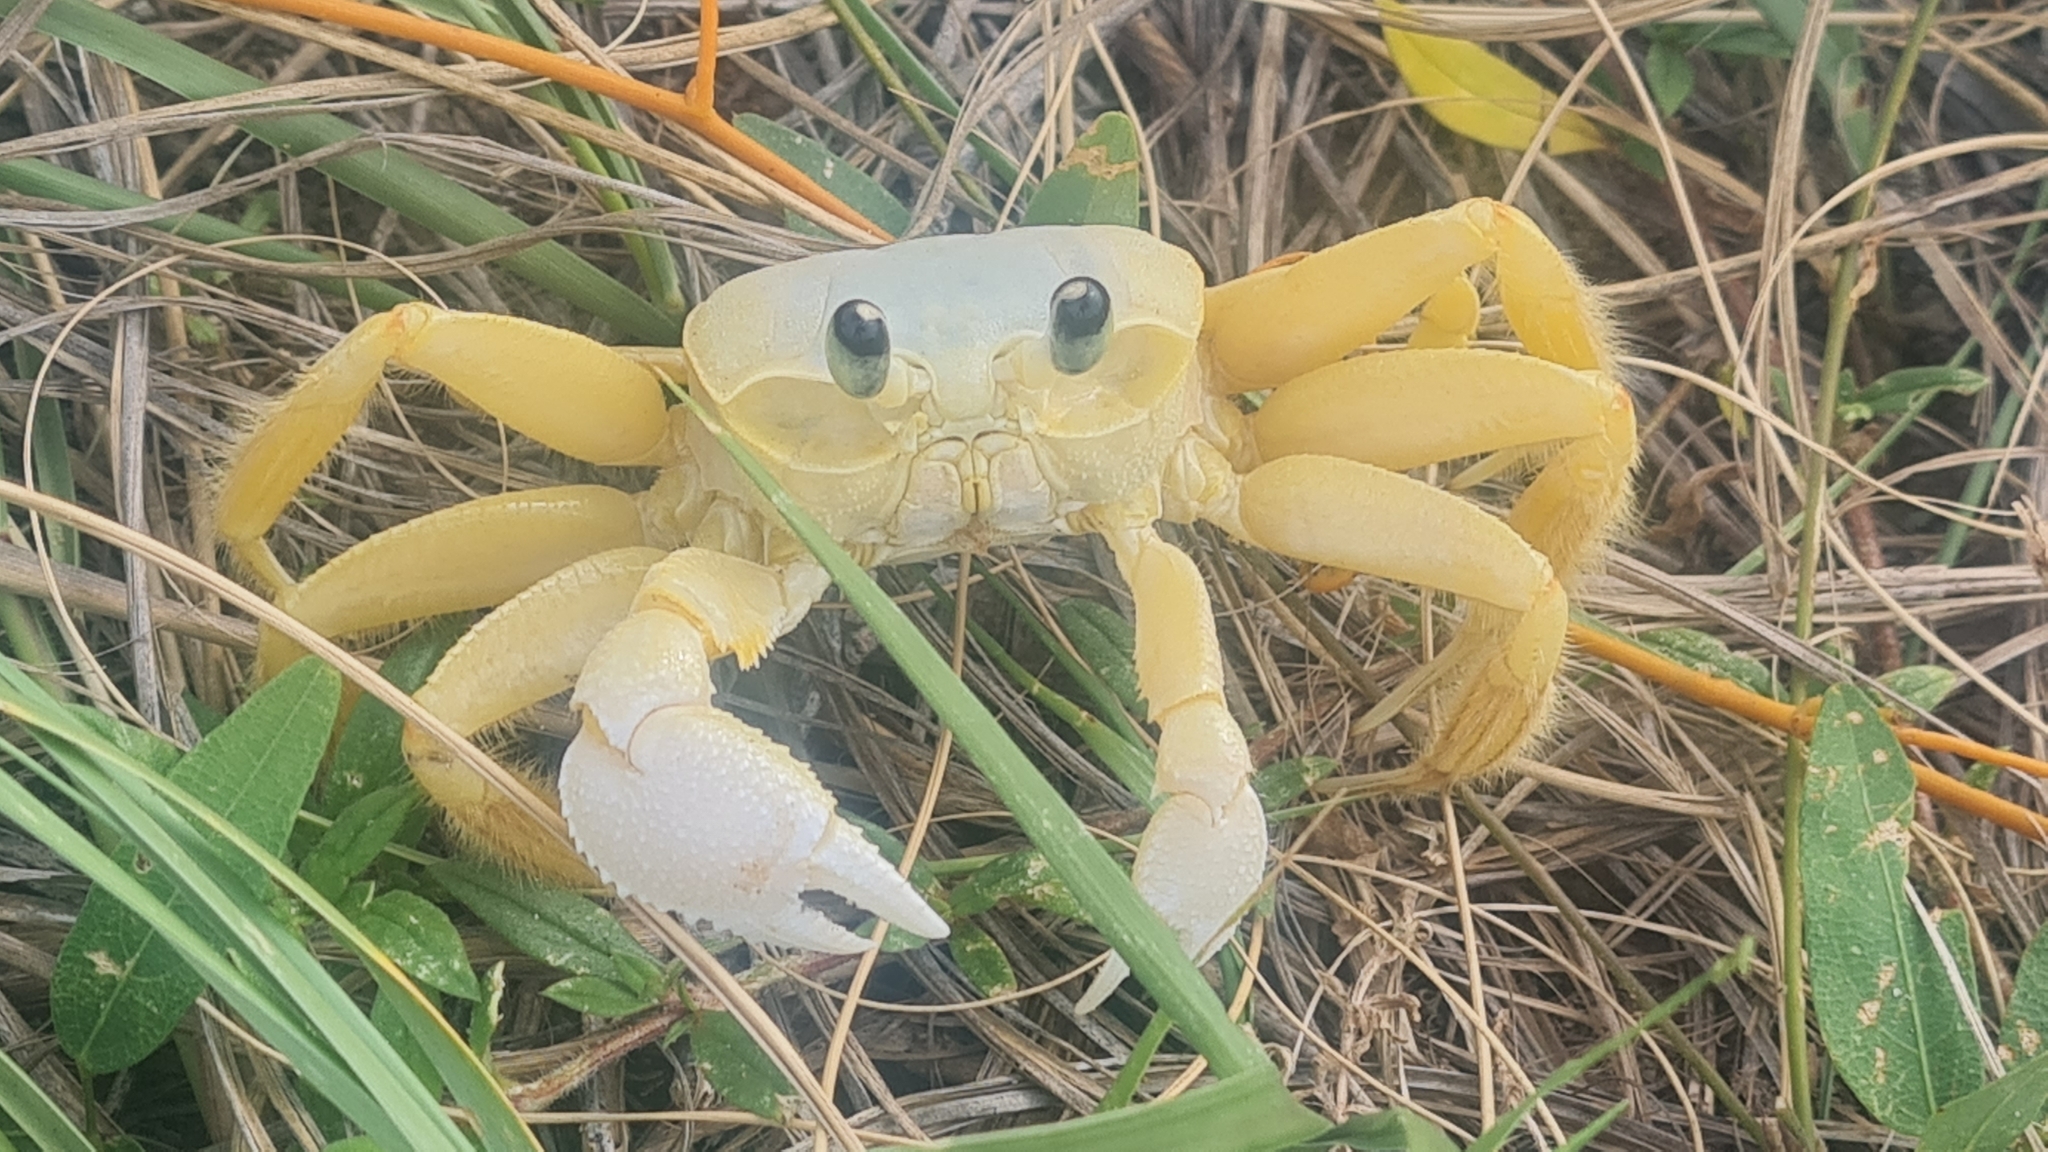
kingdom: Animalia
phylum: Arthropoda
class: Malacostraca
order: Decapoda
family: Ocypodidae
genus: Ocypode
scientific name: Ocypode quadrata
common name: Ghost crab
